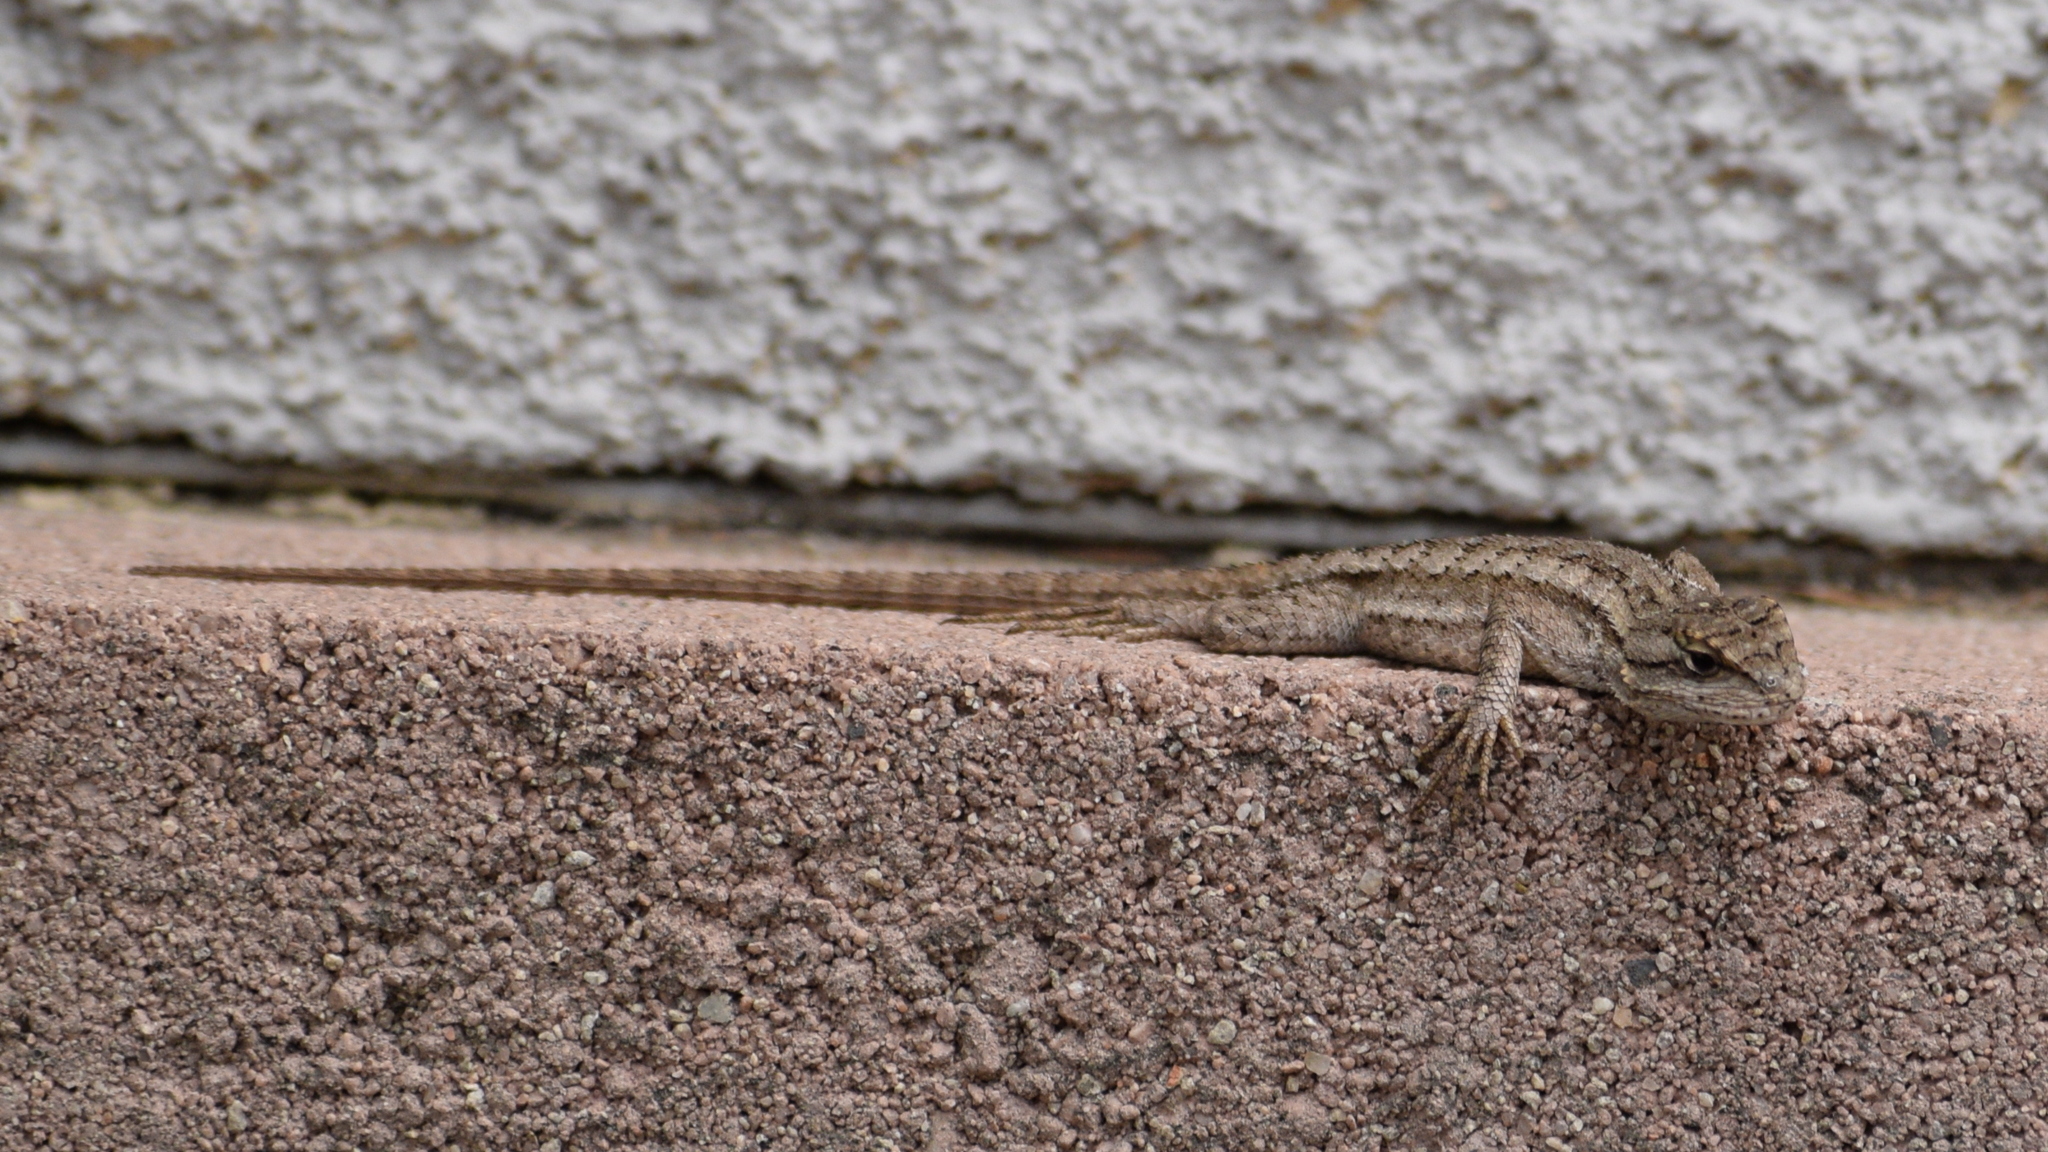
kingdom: Animalia
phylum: Chordata
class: Squamata
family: Phrynosomatidae
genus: Sceloporus
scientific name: Sceloporus occidentalis
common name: Western fence lizard
